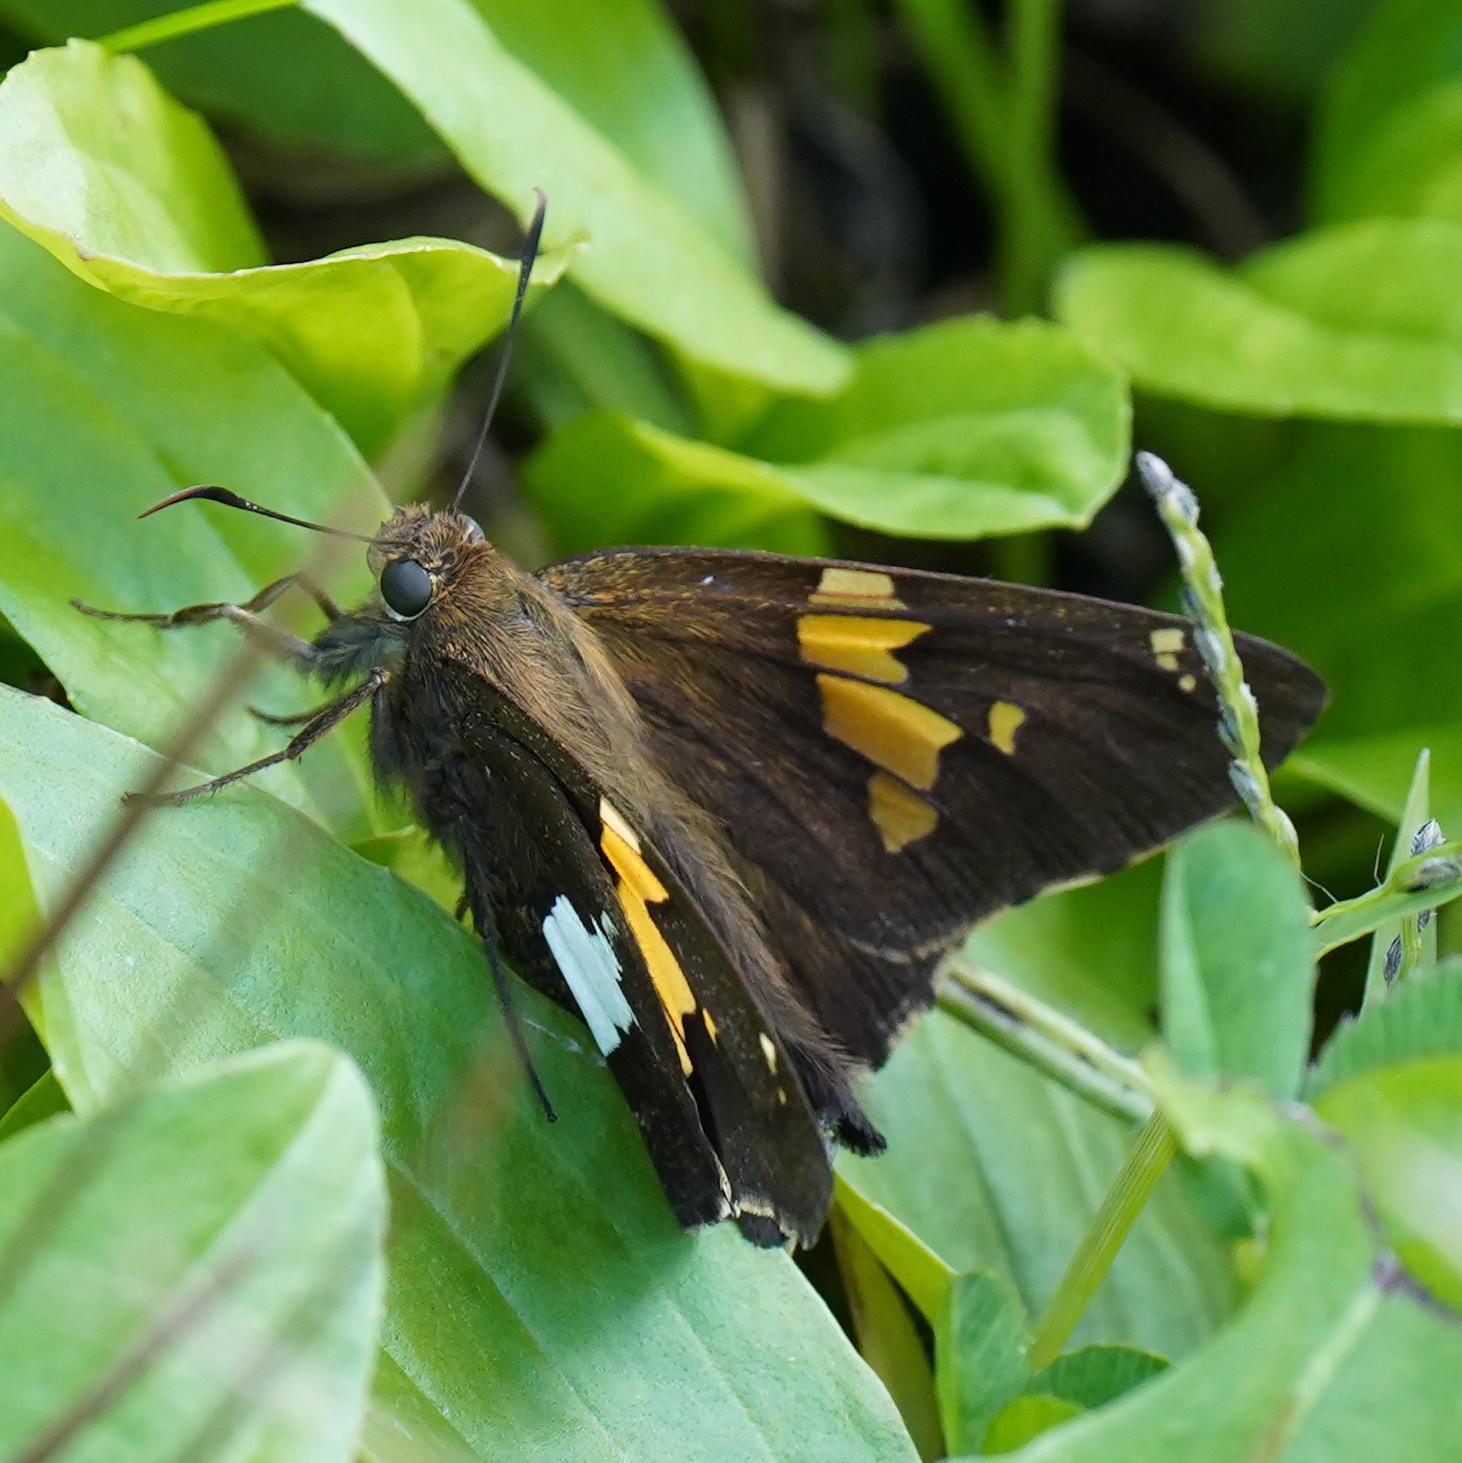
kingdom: Animalia
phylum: Arthropoda
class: Insecta
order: Lepidoptera
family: Hesperiidae
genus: Epargyreus
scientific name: Epargyreus clarus
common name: Silver-spotted skipper
